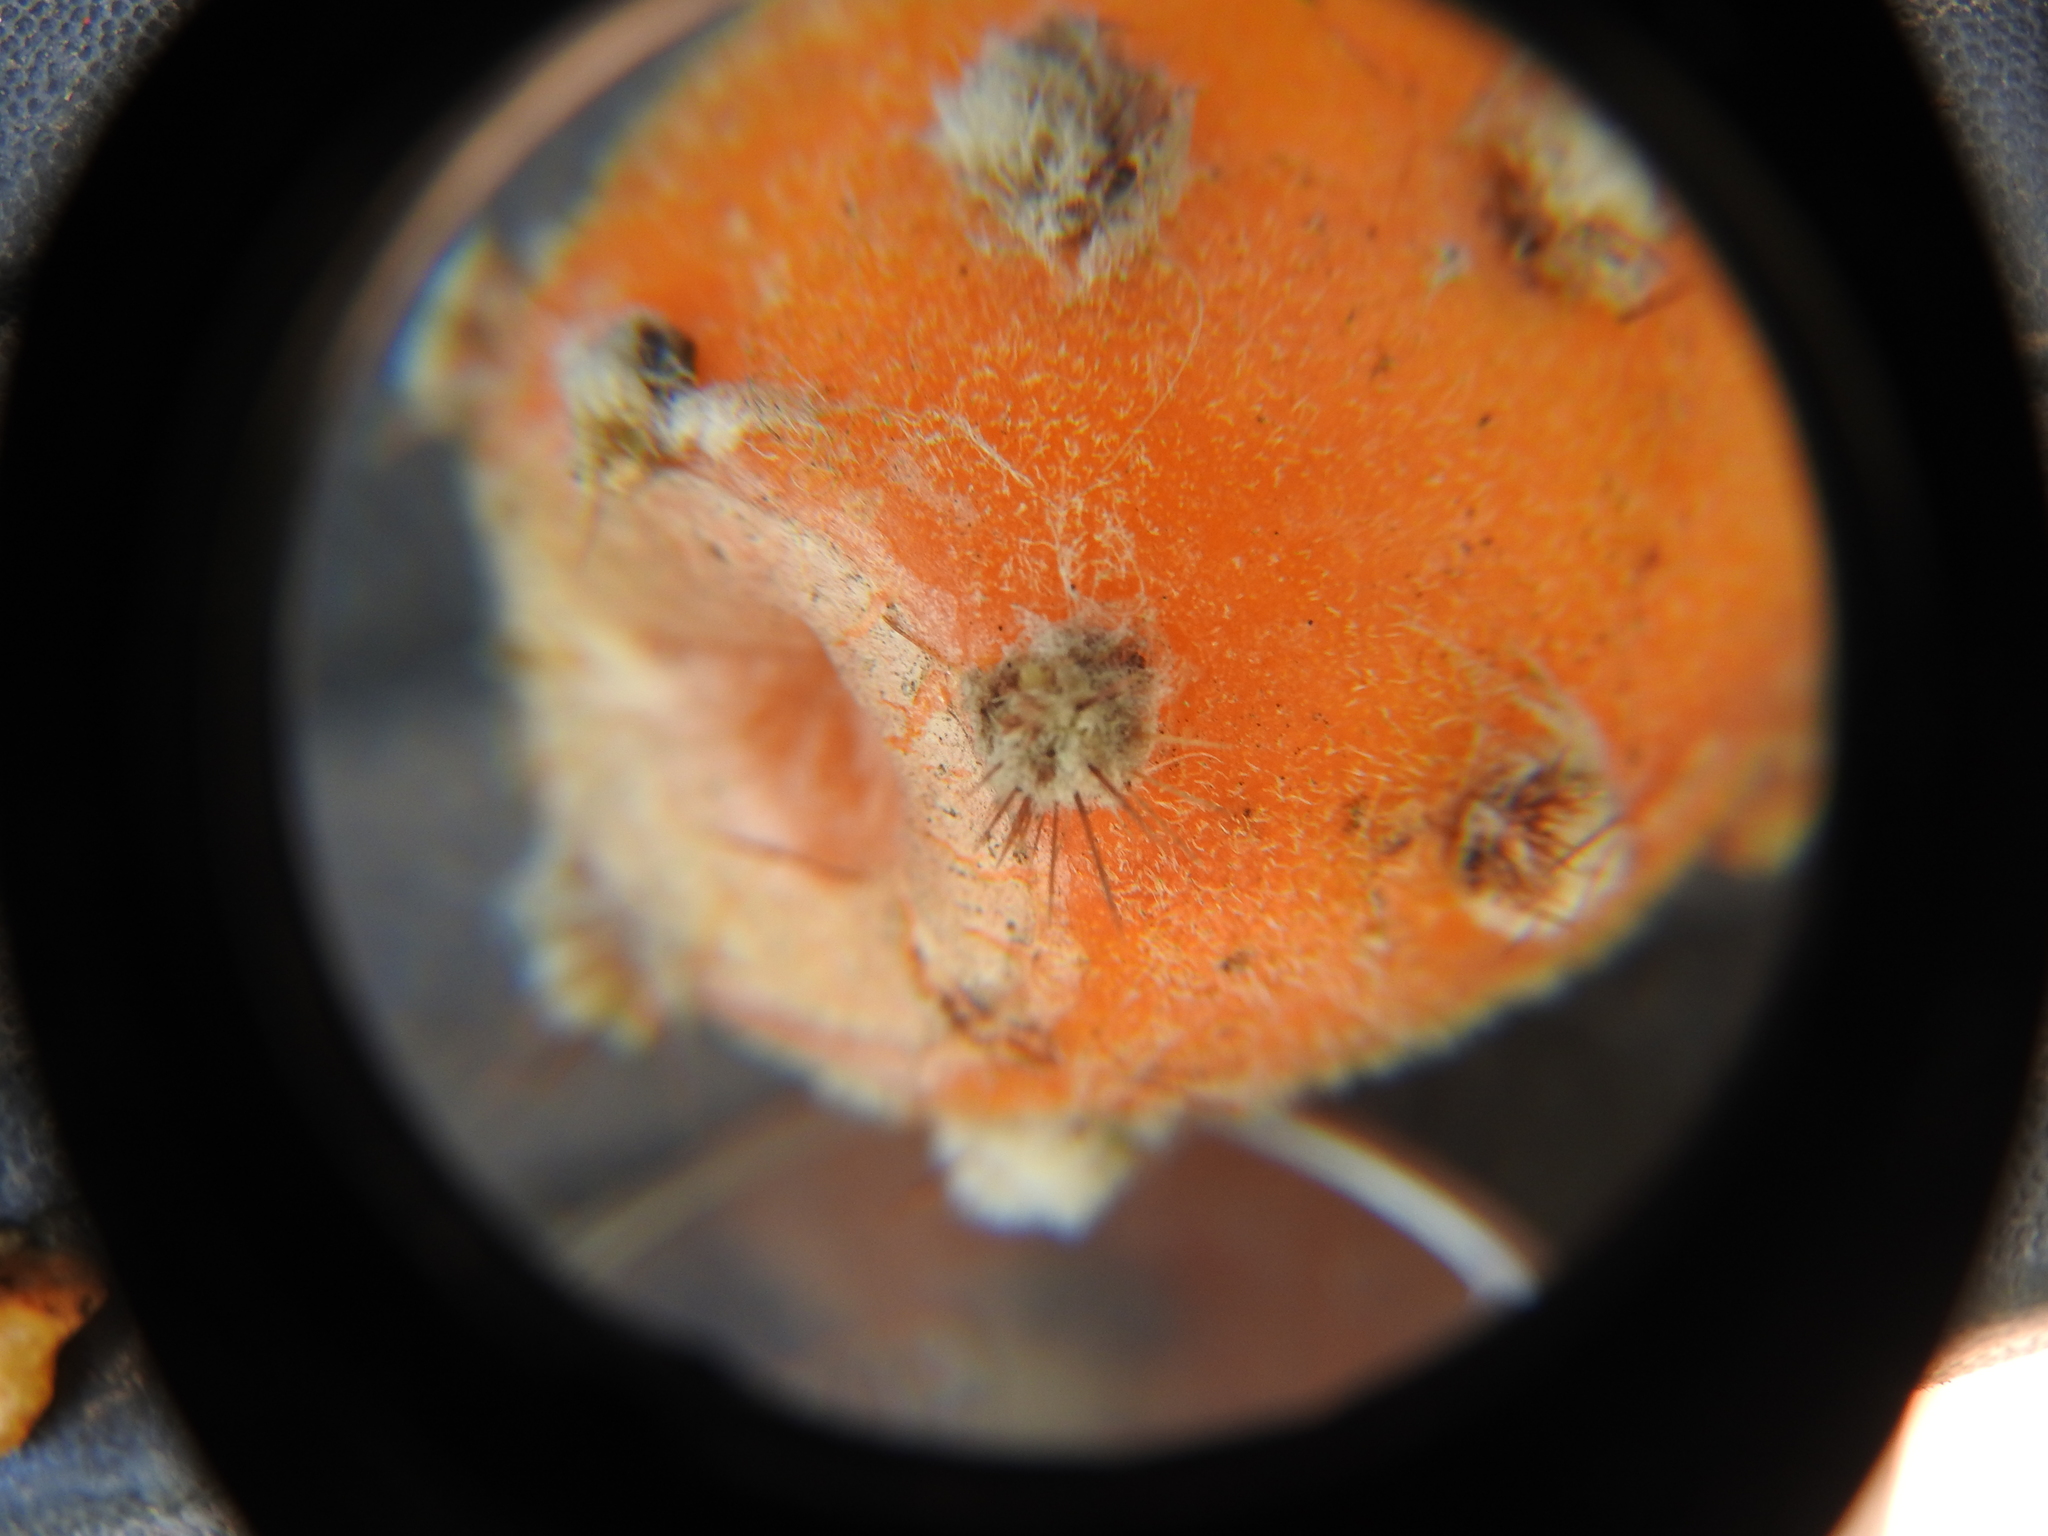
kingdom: Plantae
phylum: Tracheophyta
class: Magnoliopsida
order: Caryophyllales
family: Cactaceae
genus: Pereskiopsis
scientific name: Pereskiopsis diguetii
